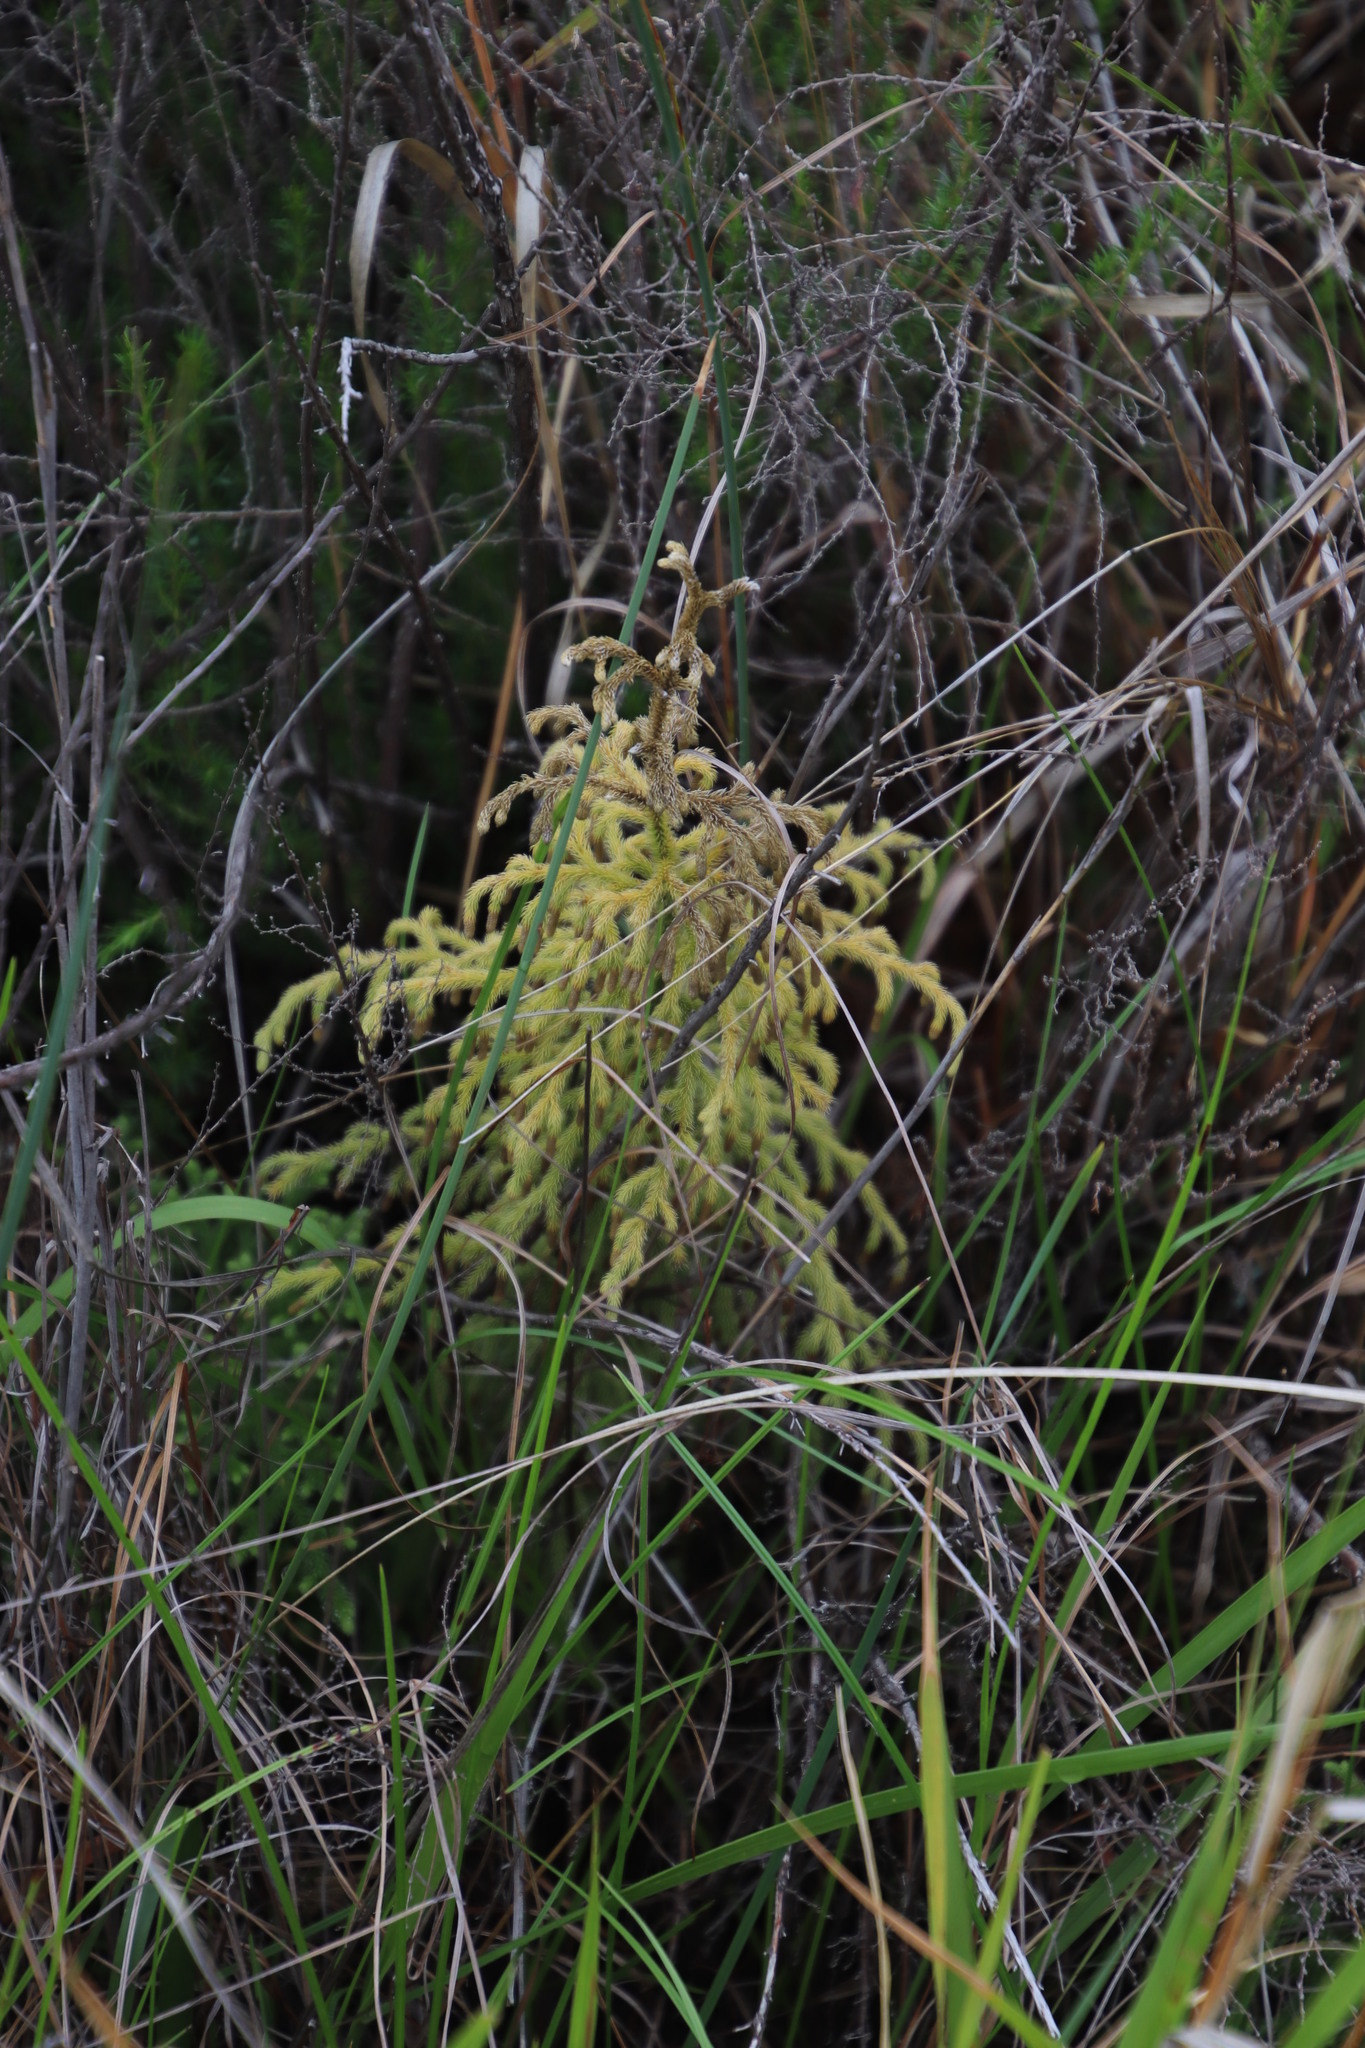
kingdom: Plantae
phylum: Tracheophyta
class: Lycopodiopsida
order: Lycopodiales
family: Lycopodiaceae
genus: Palhinhaea
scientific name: Palhinhaea cernua
